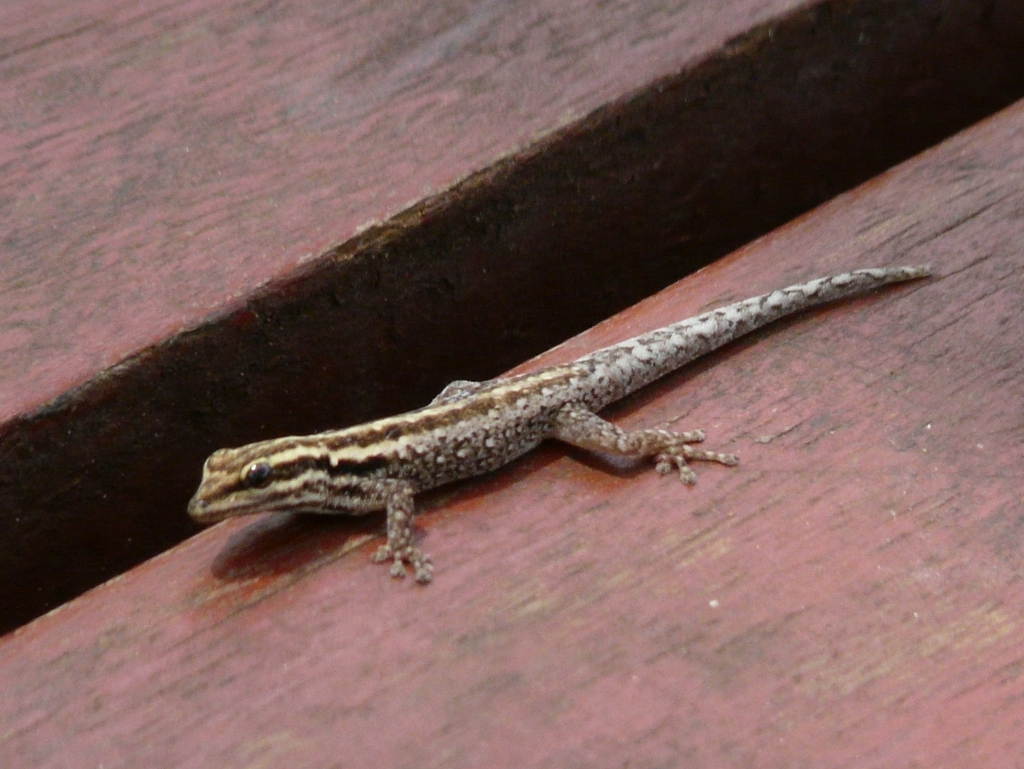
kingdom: Animalia
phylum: Chordata
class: Squamata
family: Gekkonidae
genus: Lygodactylus
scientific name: Lygodactylus tsavoensis
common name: Tsavo dwarf gecko
